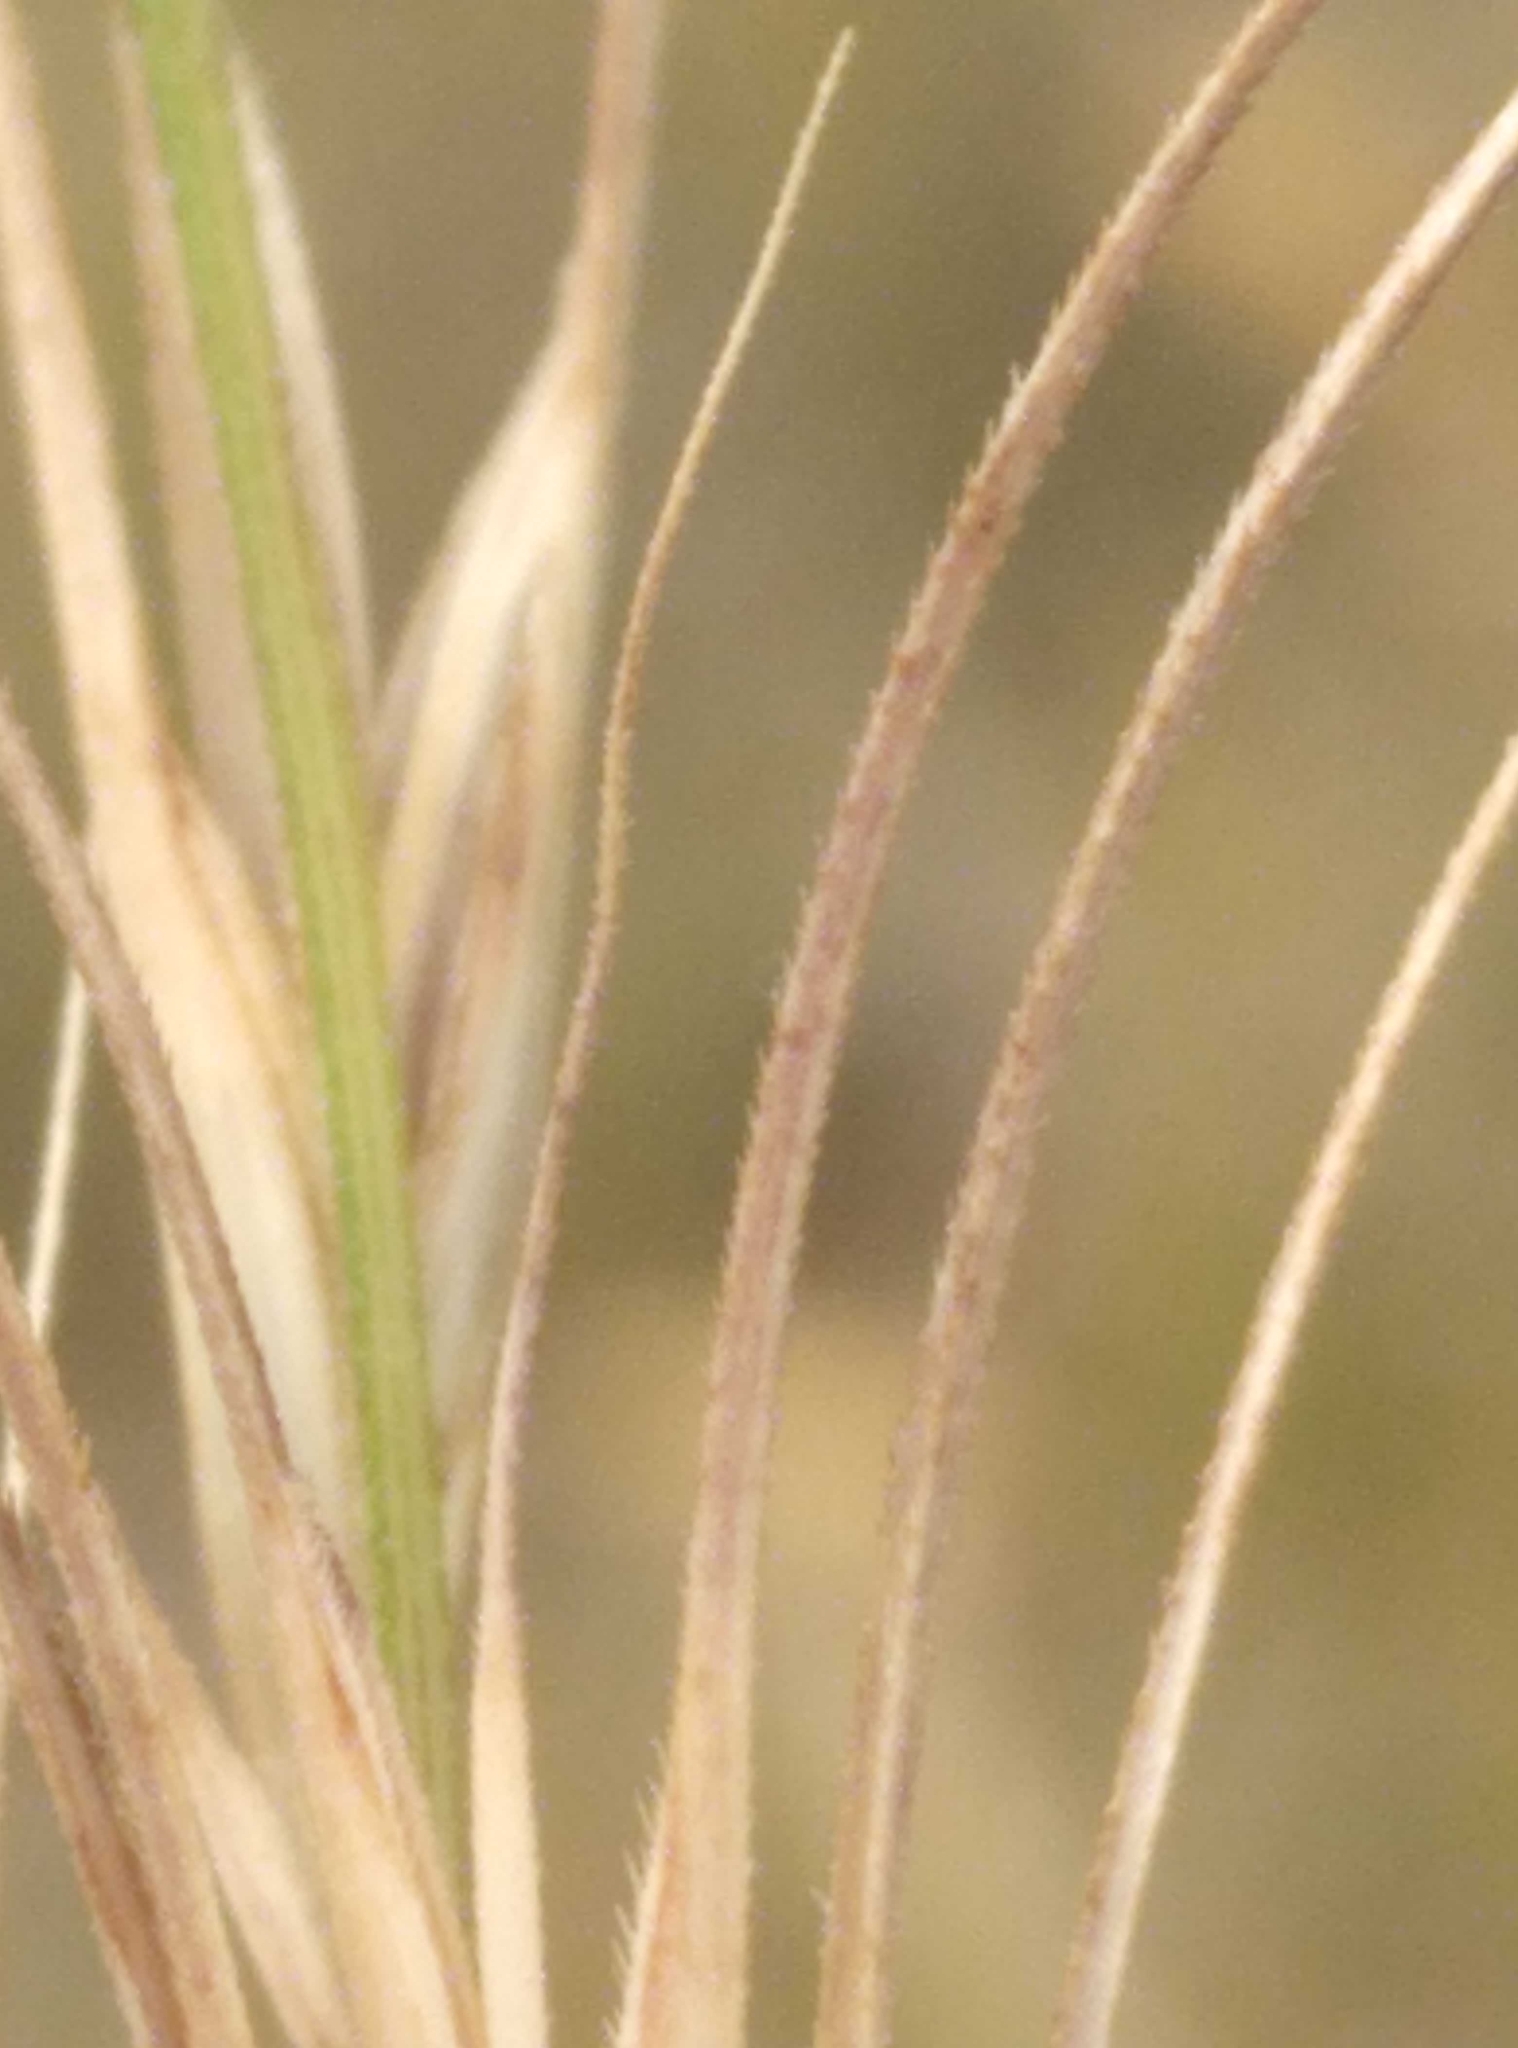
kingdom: Plantae
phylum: Tracheophyta
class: Liliopsida
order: Poales
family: Poaceae
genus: Anthosachne
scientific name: Anthosachne scabra
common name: Common wheatgrass
